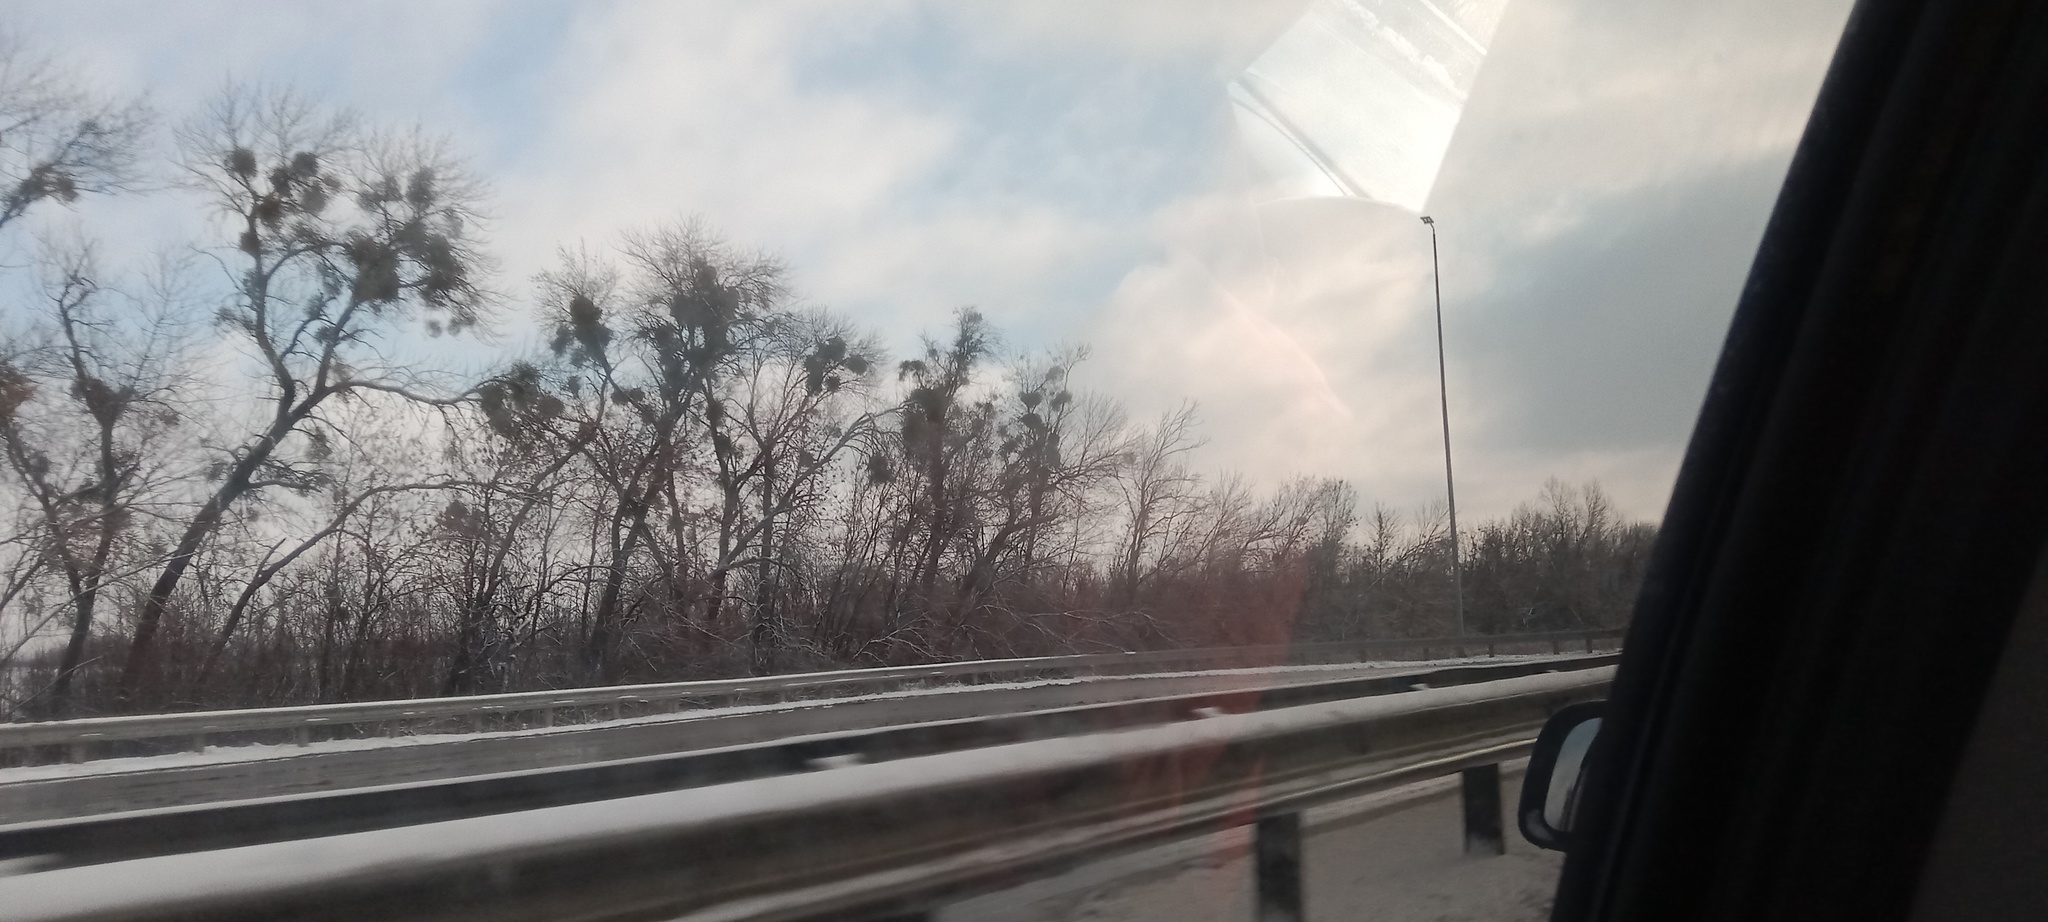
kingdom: Plantae
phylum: Tracheophyta
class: Magnoliopsida
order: Santalales
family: Viscaceae
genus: Viscum
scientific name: Viscum album
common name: Mistletoe
